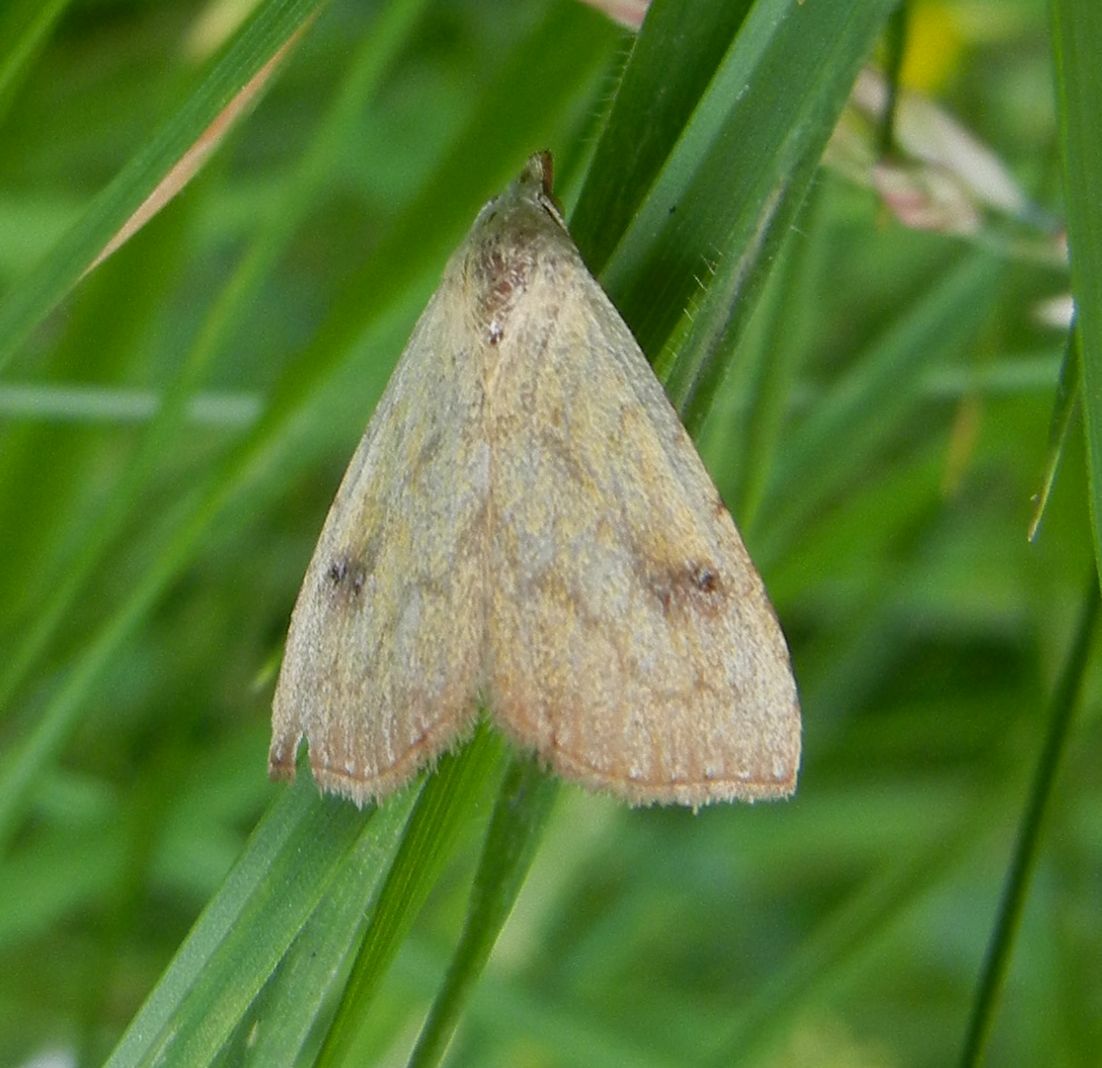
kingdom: Animalia
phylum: Arthropoda
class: Insecta
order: Lepidoptera
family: Erebidae
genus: Rivula
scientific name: Rivula sericealis
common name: Straw dot
